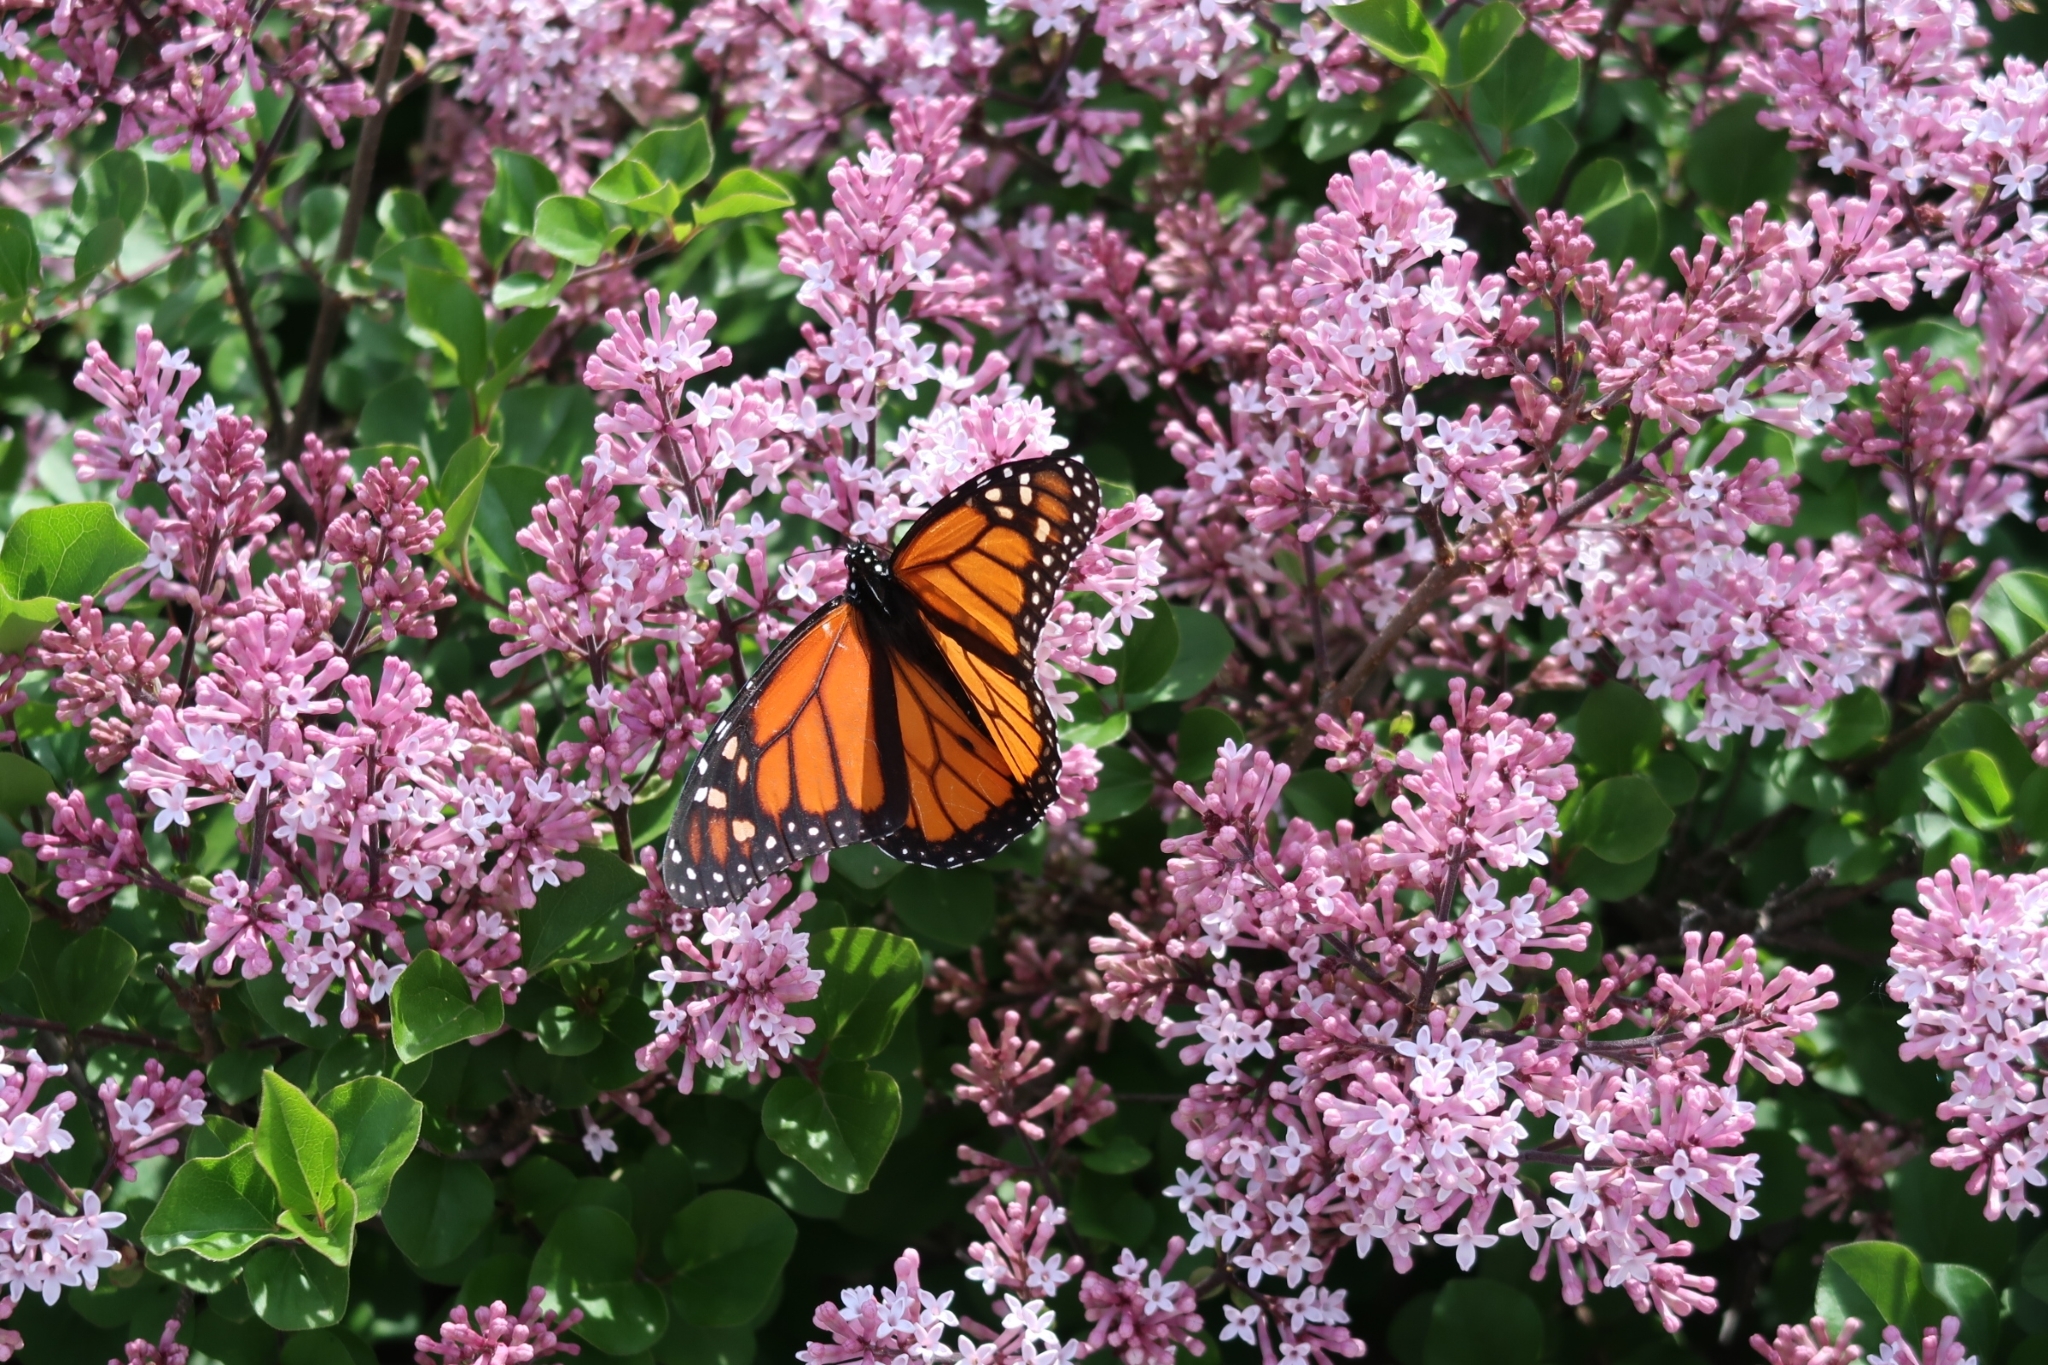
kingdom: Animalia
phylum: Arthropoda
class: Insecta
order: Lepidoptera
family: Nymphalidae
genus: Danaus
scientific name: Danaus plexippus
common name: Monarch
